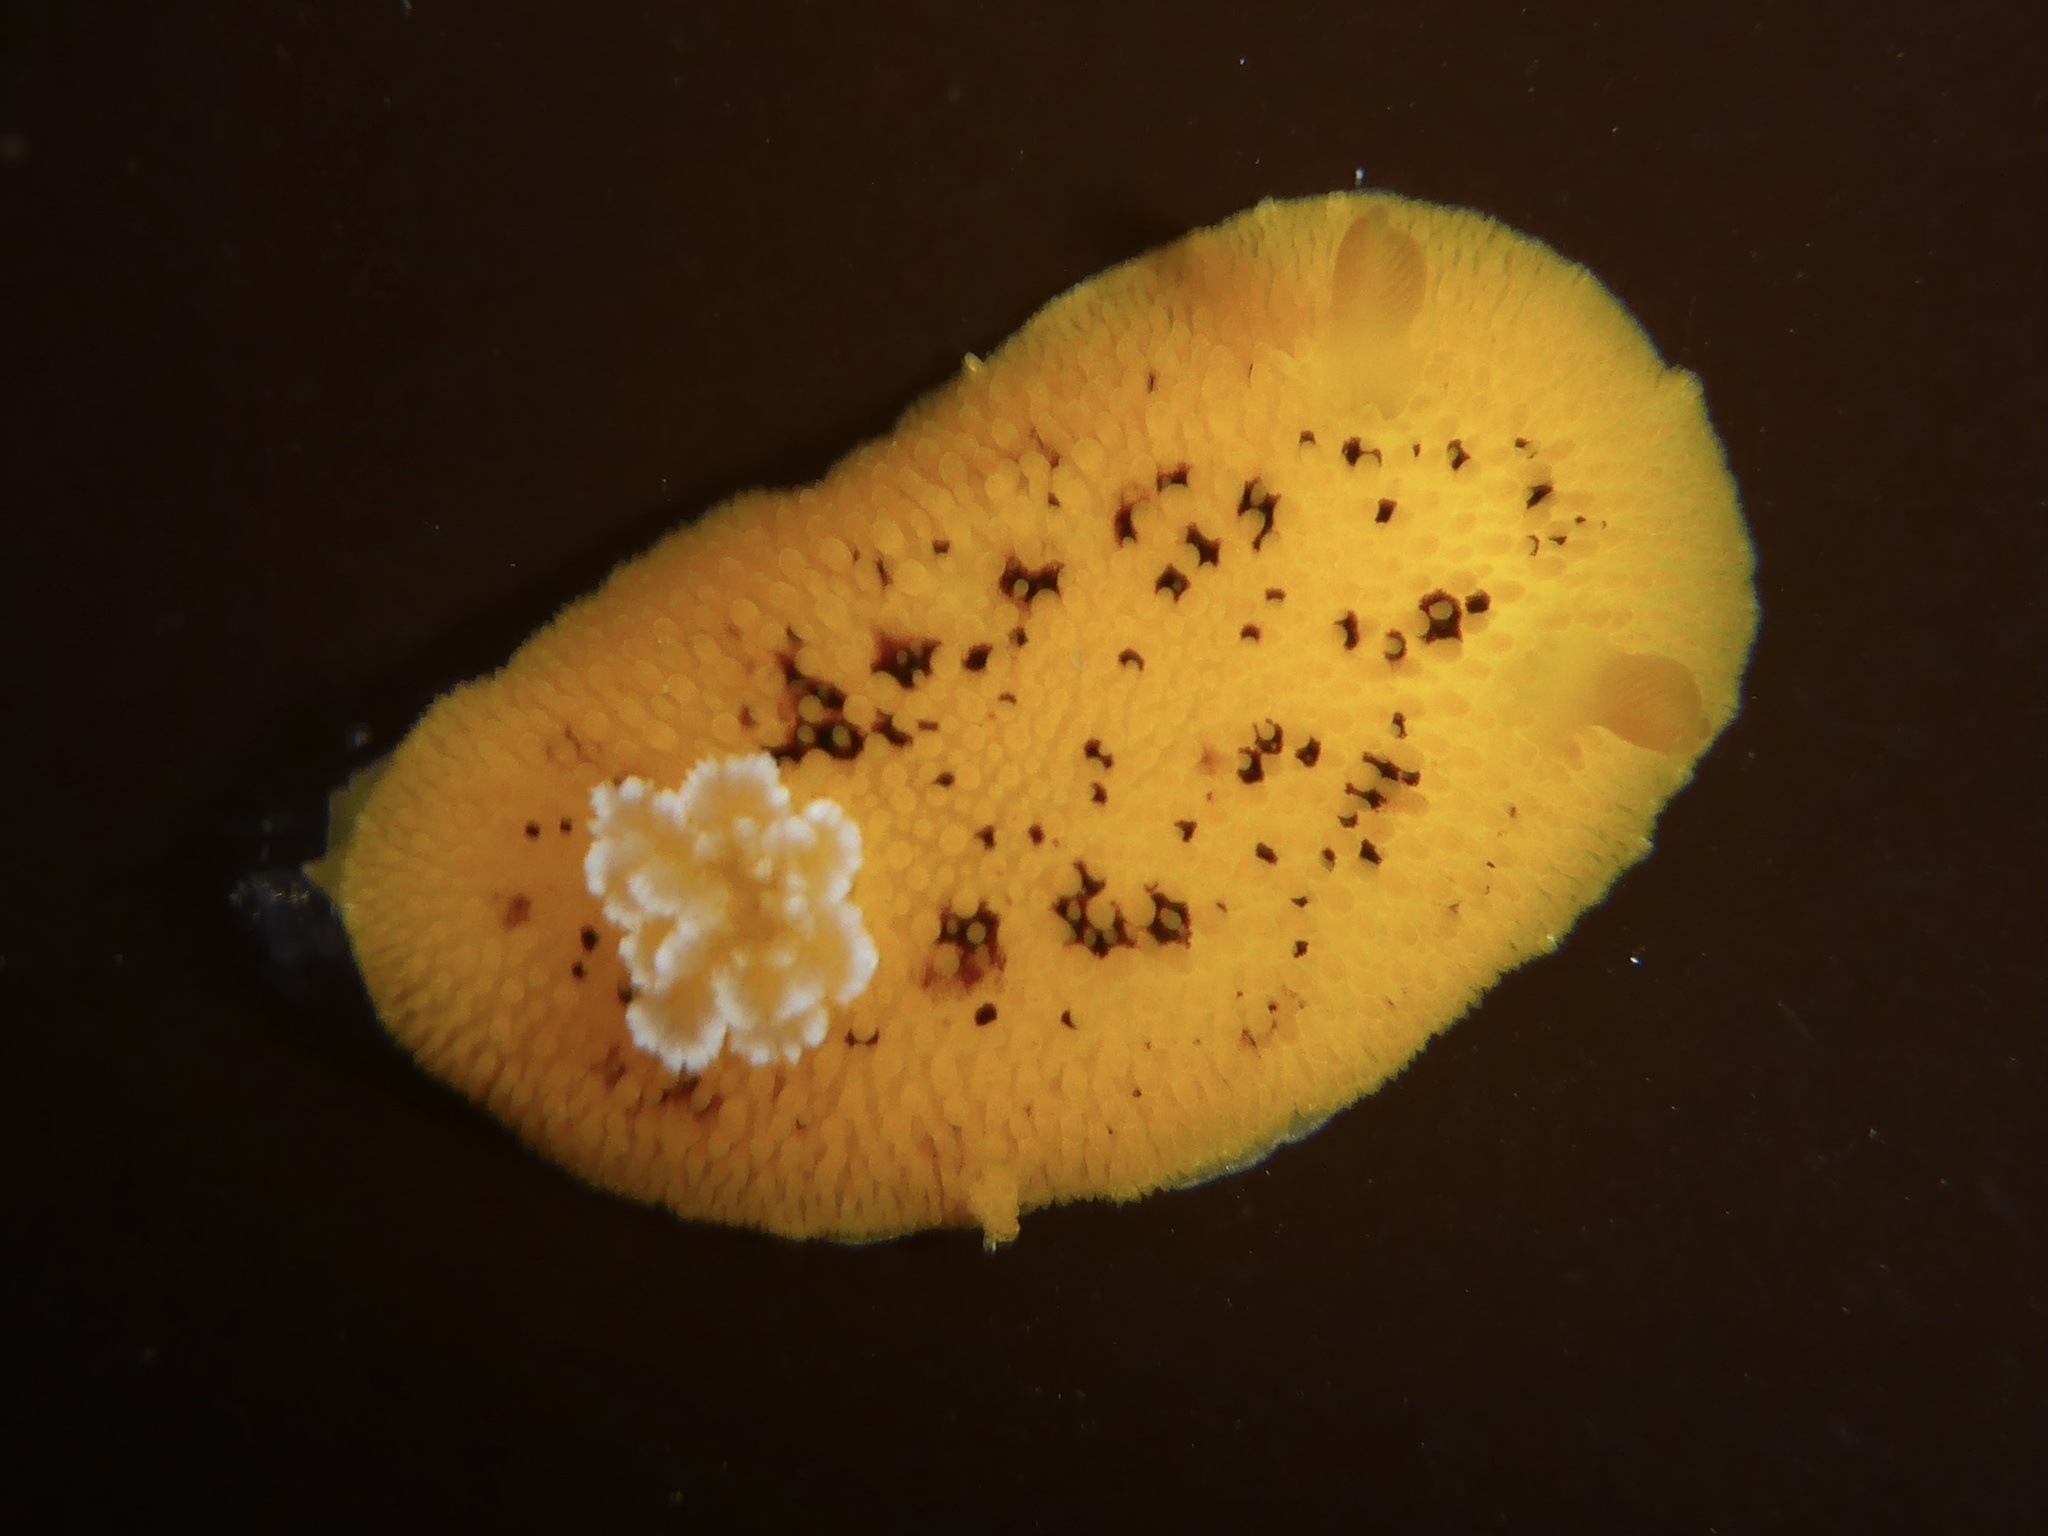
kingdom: Animalia
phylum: Mollusca
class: Gastropoda
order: Nudibranchia
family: Discodorididae
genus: Peltodoris
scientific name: Peltodoris nobilis
